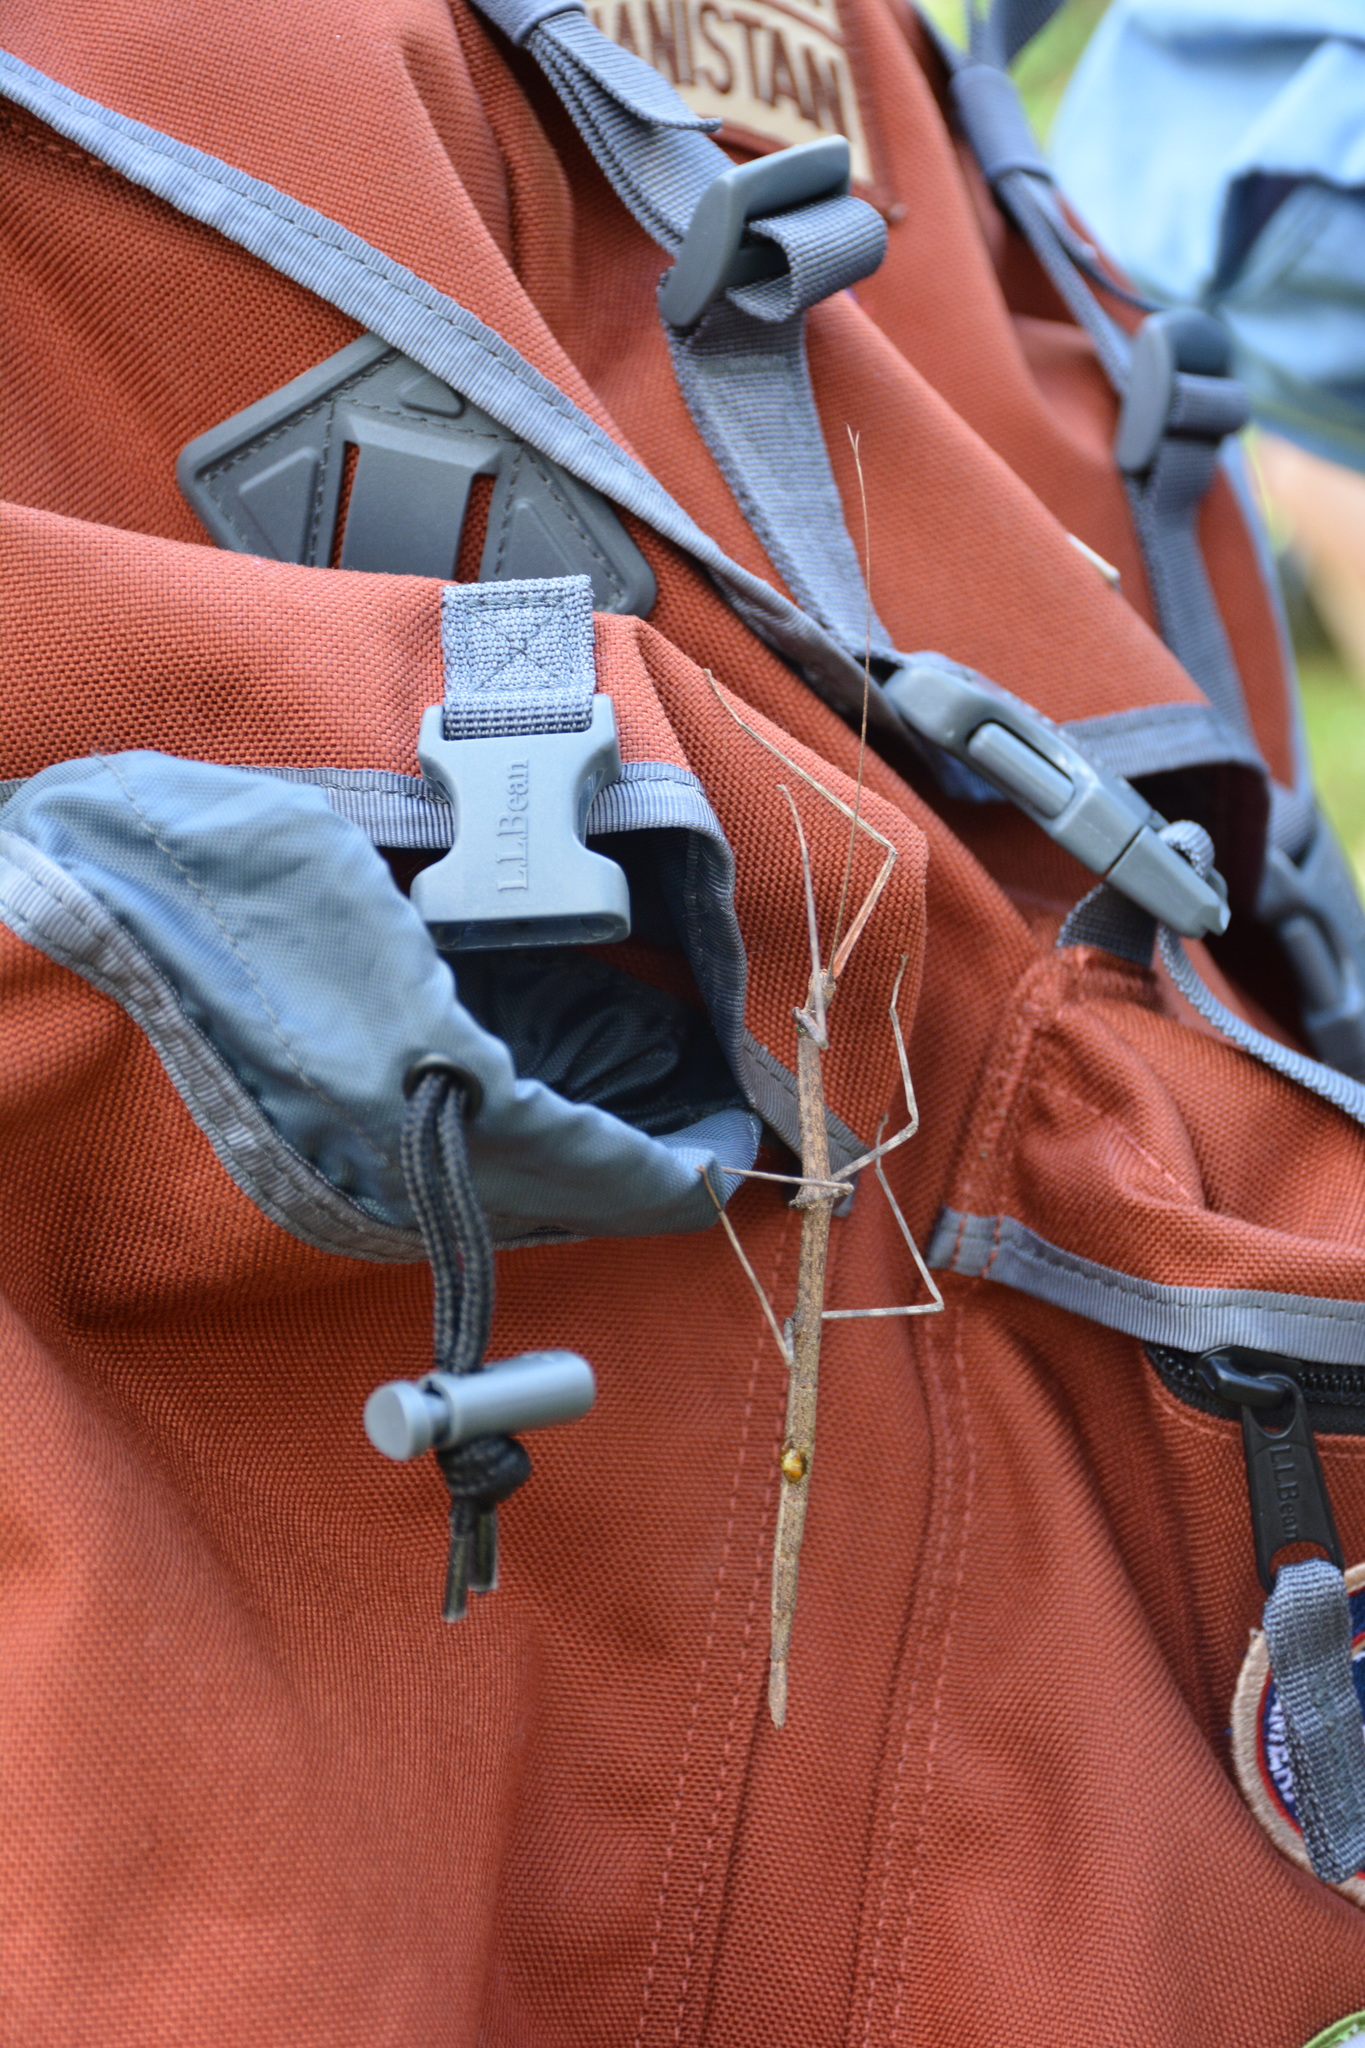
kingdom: Animalia
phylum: Arthropoda
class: Insecta
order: Phasmida
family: Diapheromeridae
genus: Diapheromera
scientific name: Diapheromera femorata
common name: Common american walkingstick
